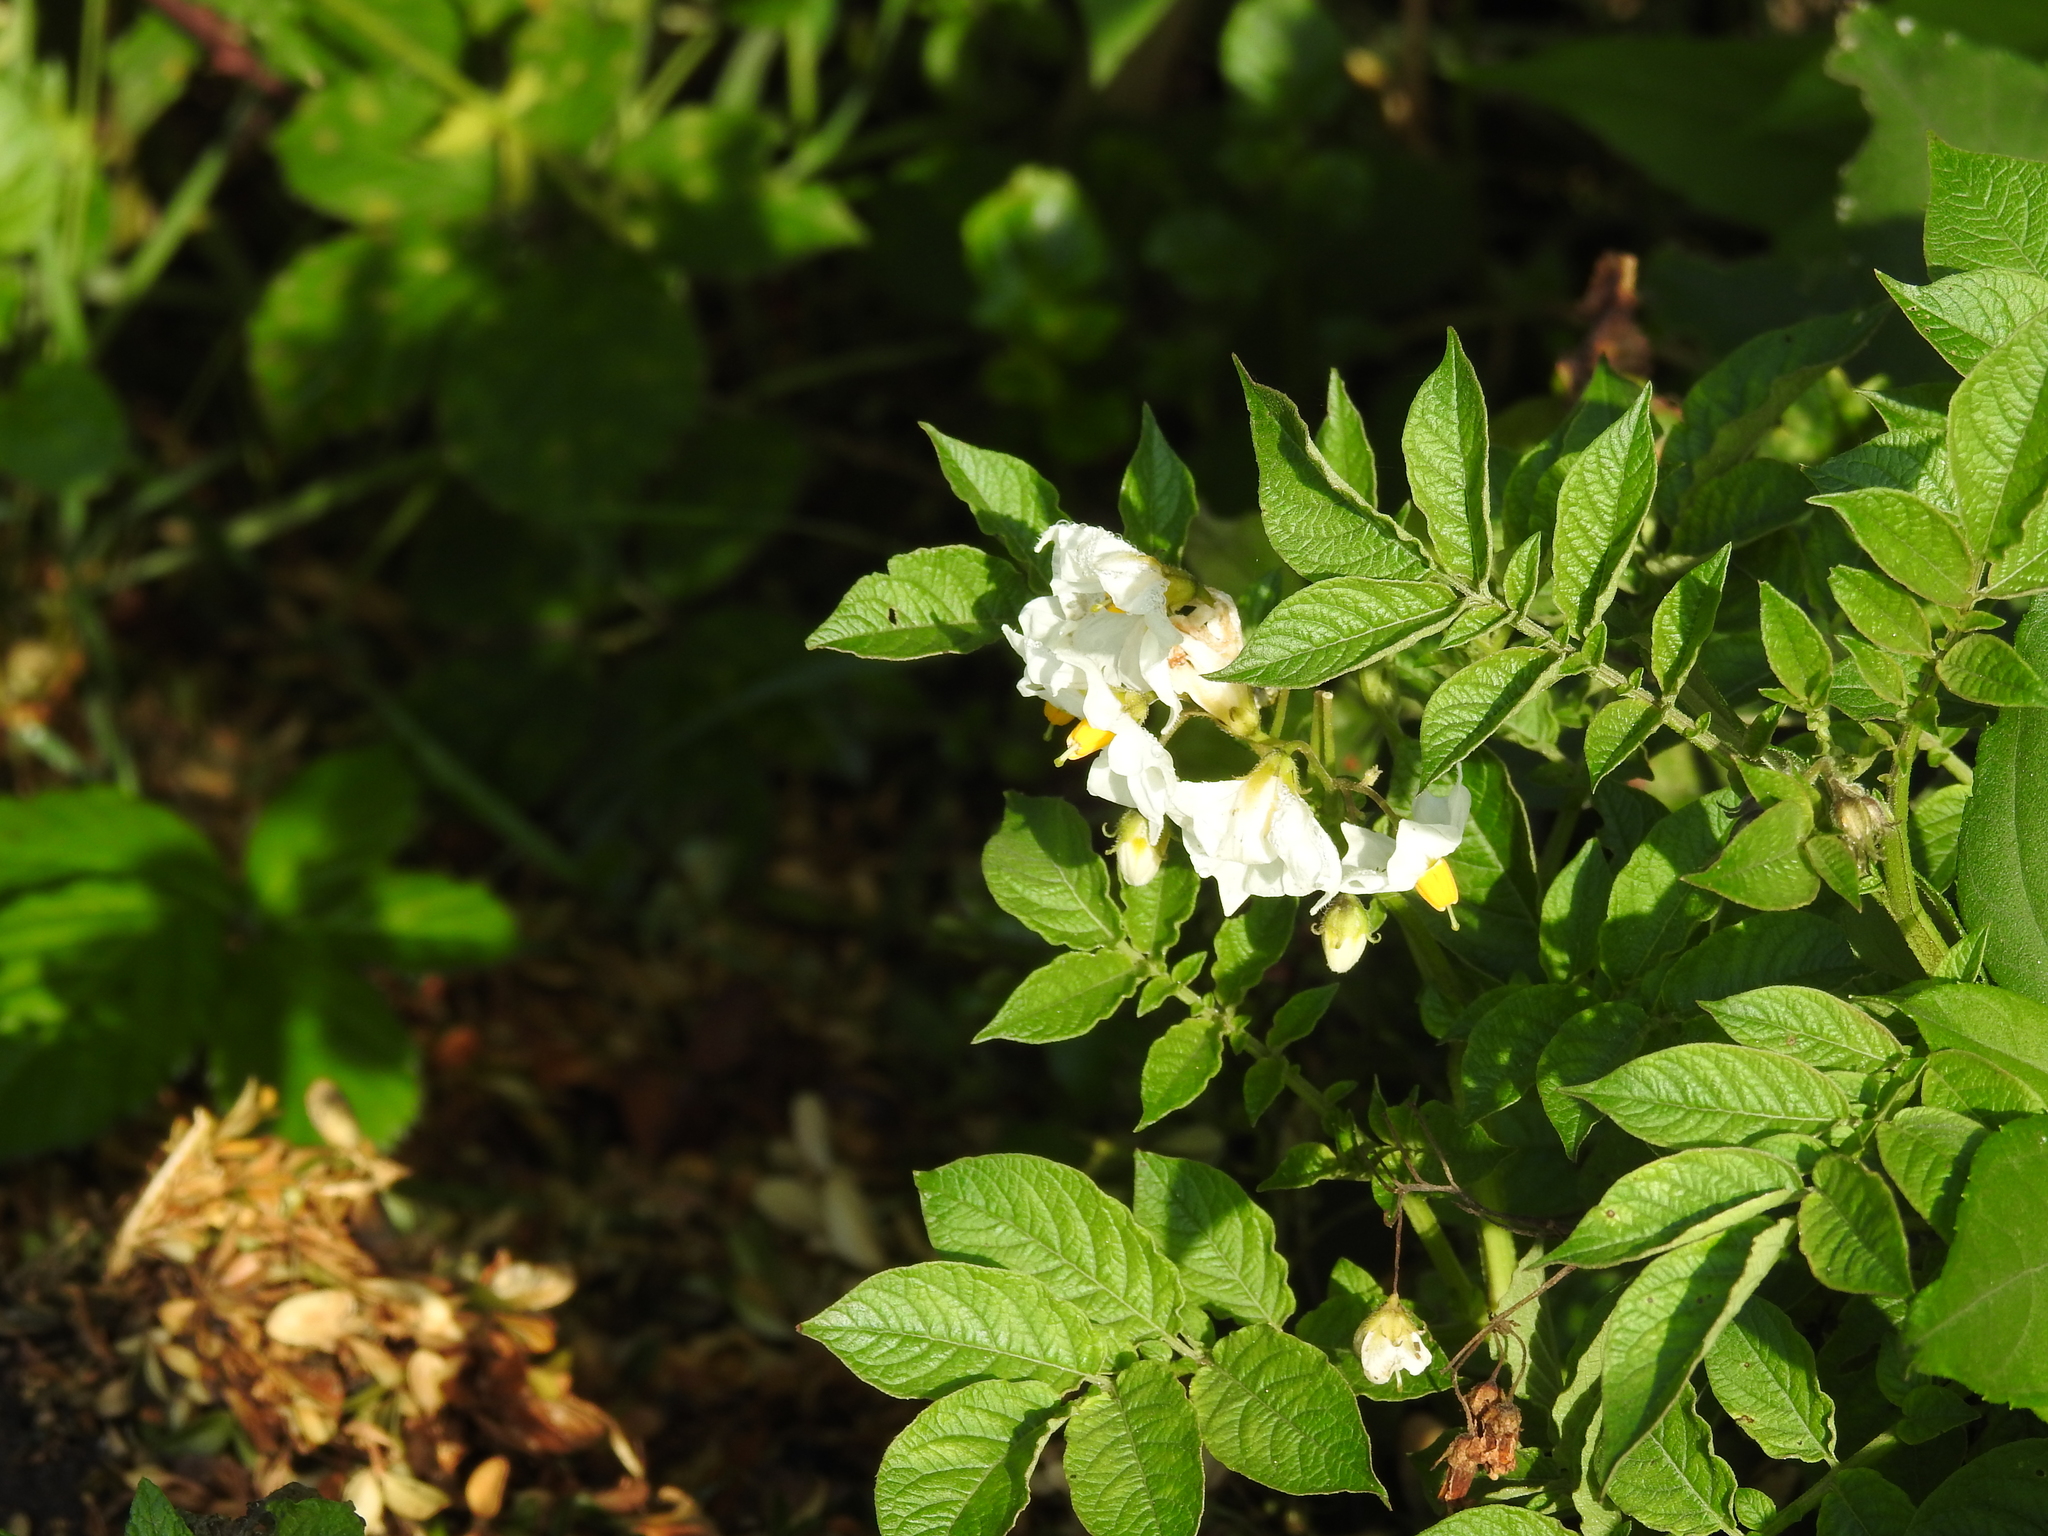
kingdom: Plantae
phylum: Tracheophyta
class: Magnoliopsida
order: Solanales
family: Solanaceae
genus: Solanum
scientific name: Solanum tuberosum
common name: Potato
